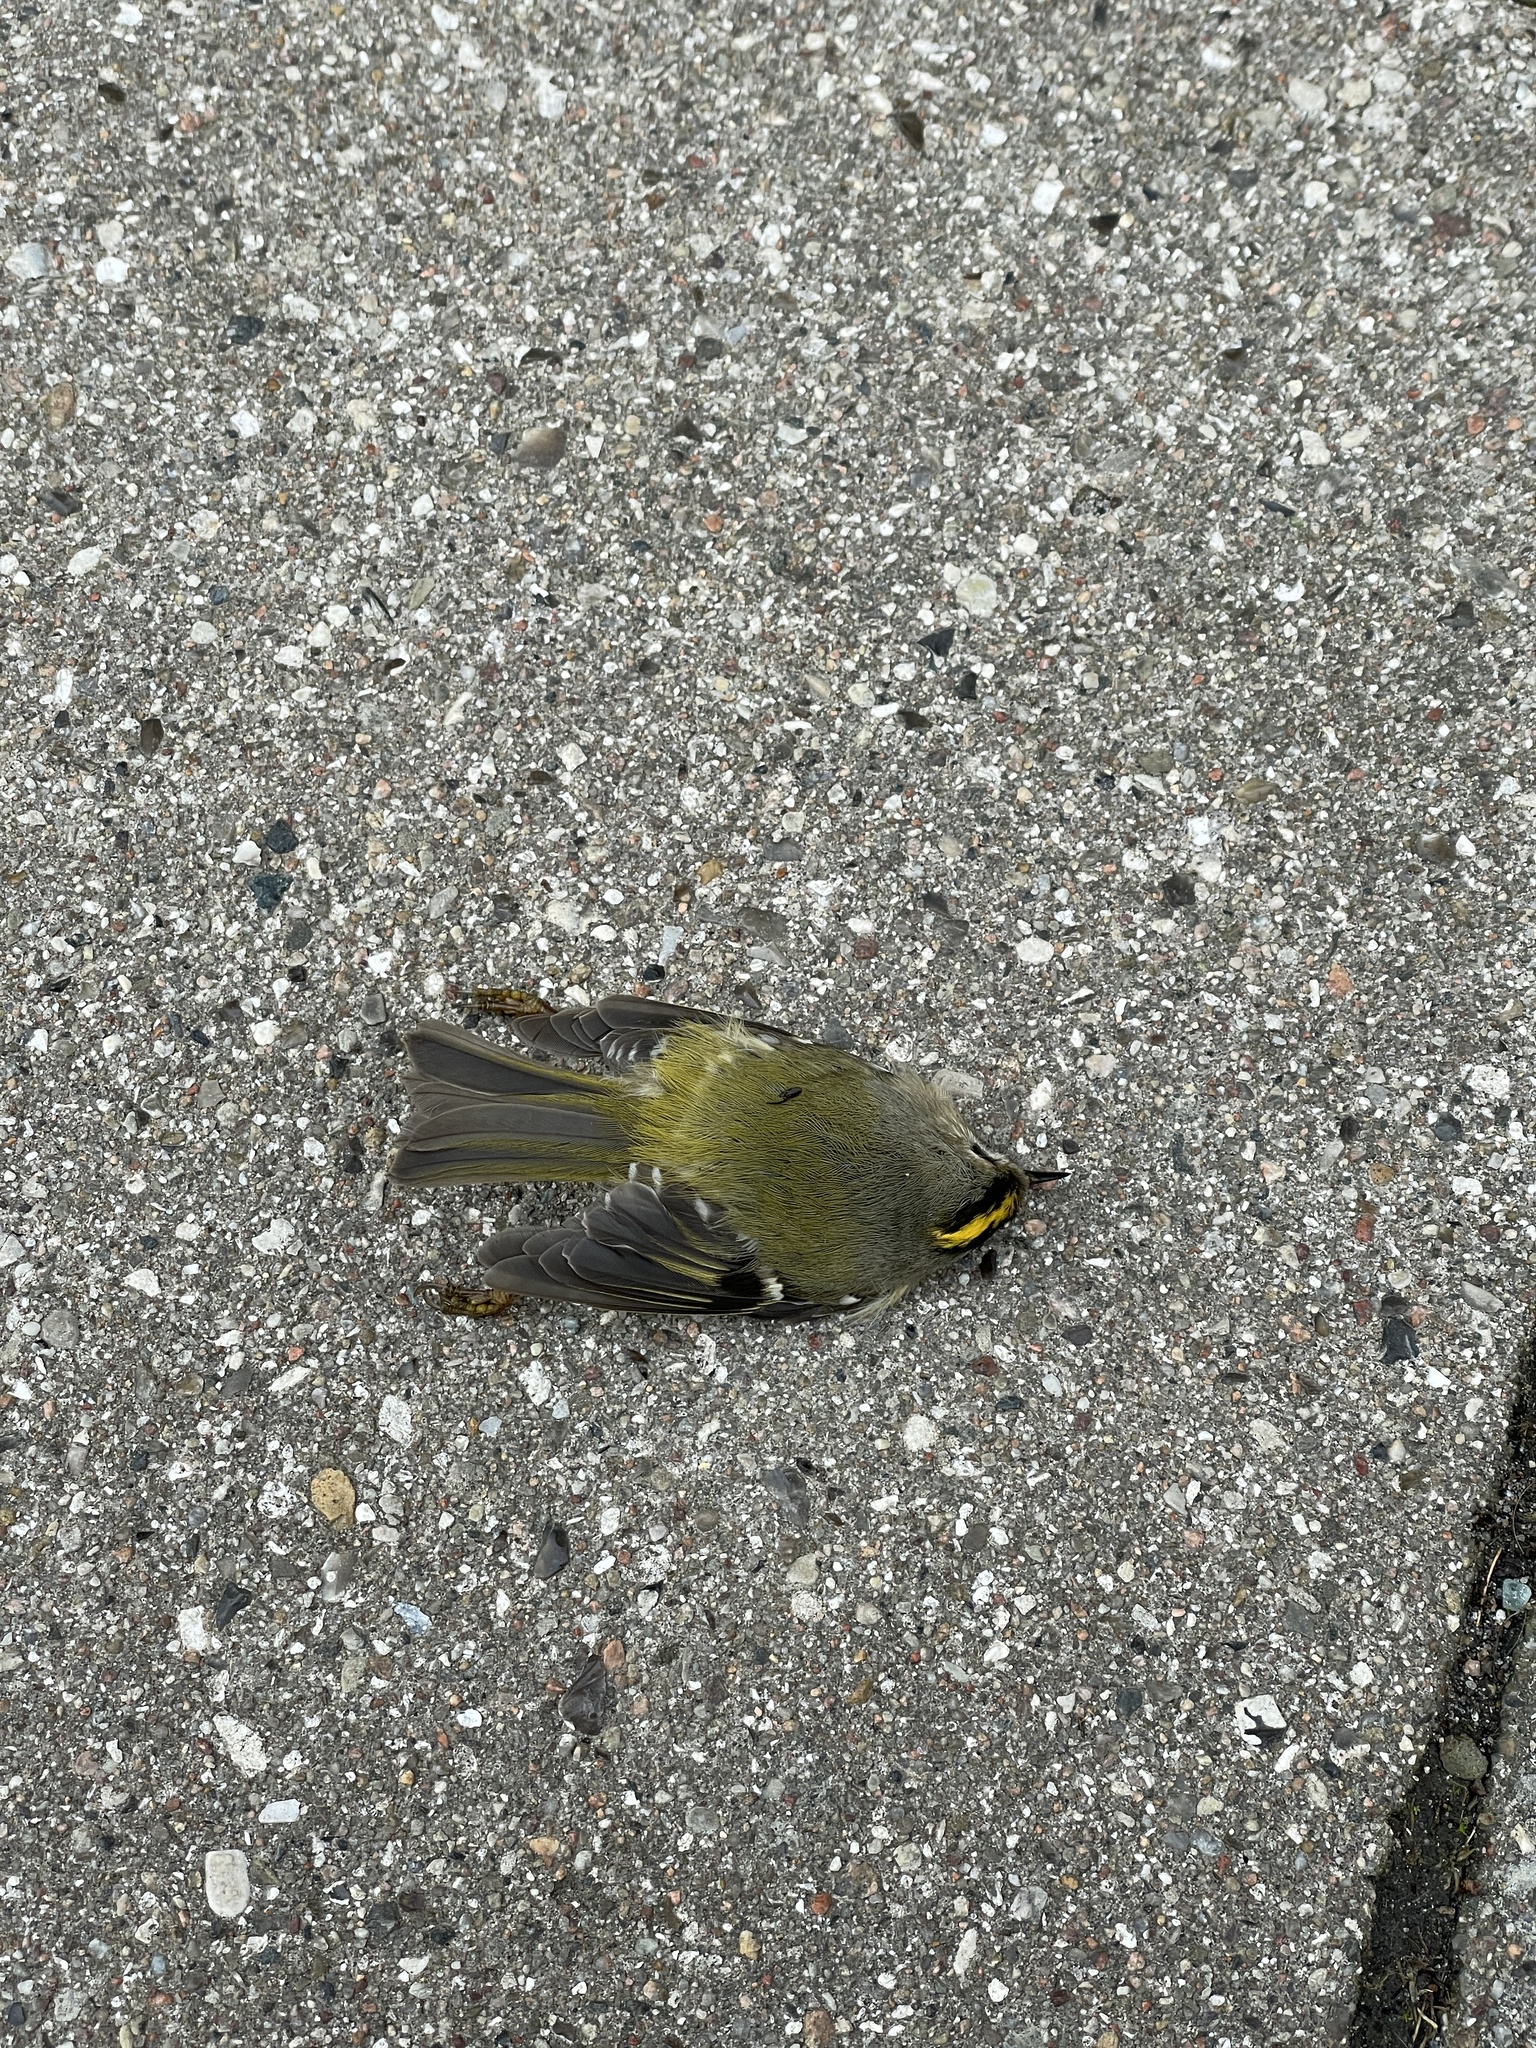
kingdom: Animalia
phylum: Chordata
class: Aves
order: Passeriformes
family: Regulidae
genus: Regulus
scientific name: Regulus regulus
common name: Goldcrest
